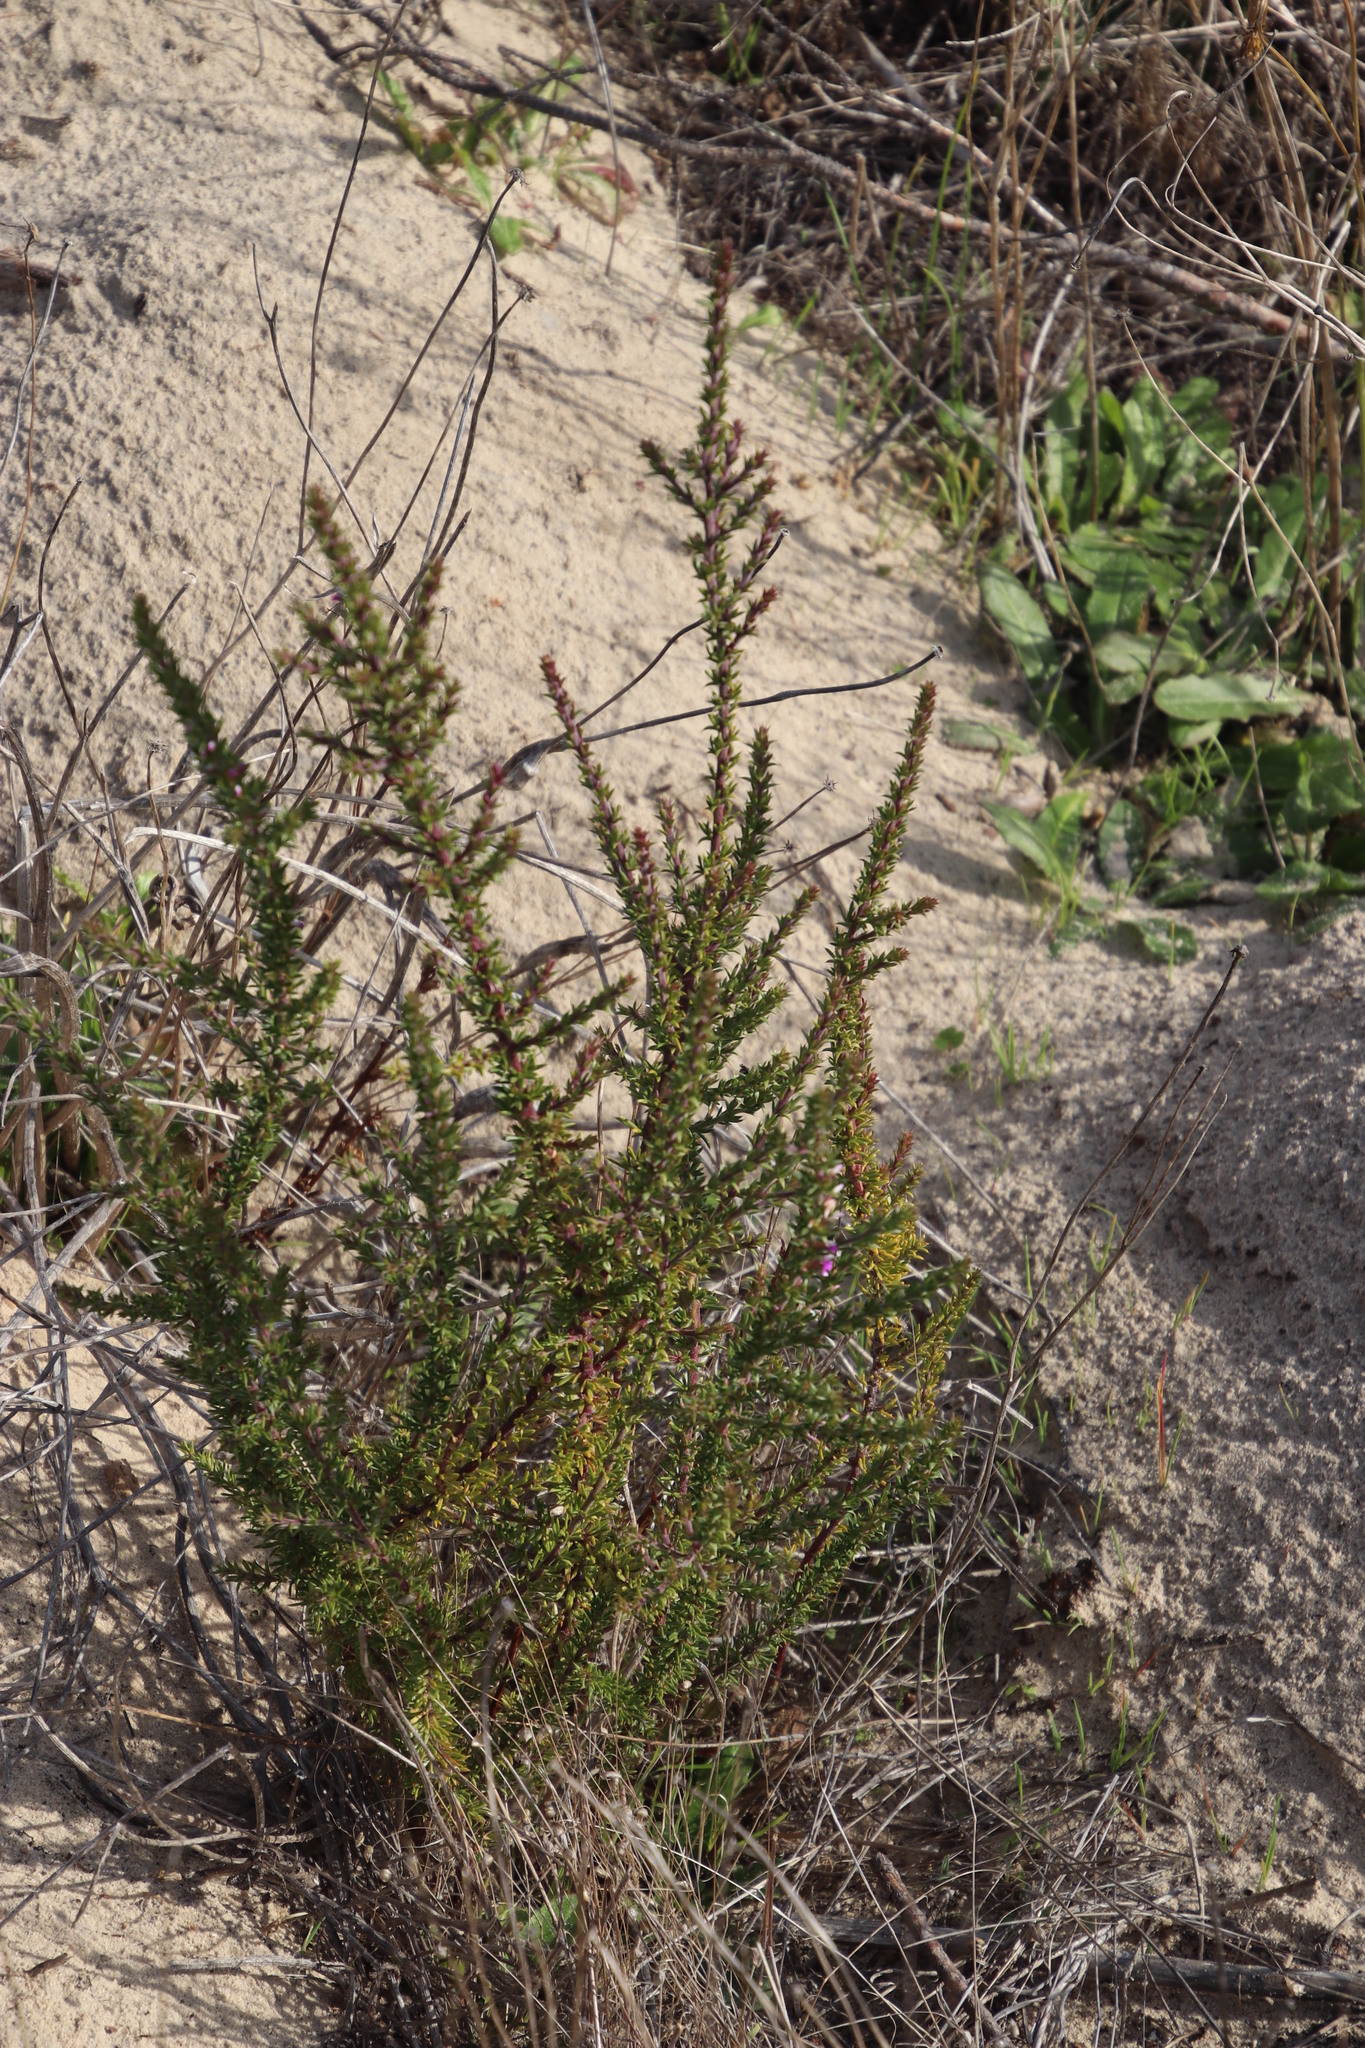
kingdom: Plantae
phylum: Tracheophyta
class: Magnoliopsida
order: Fabales
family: Polygalaceae
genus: Muraltia
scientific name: Muraltia heisteria
